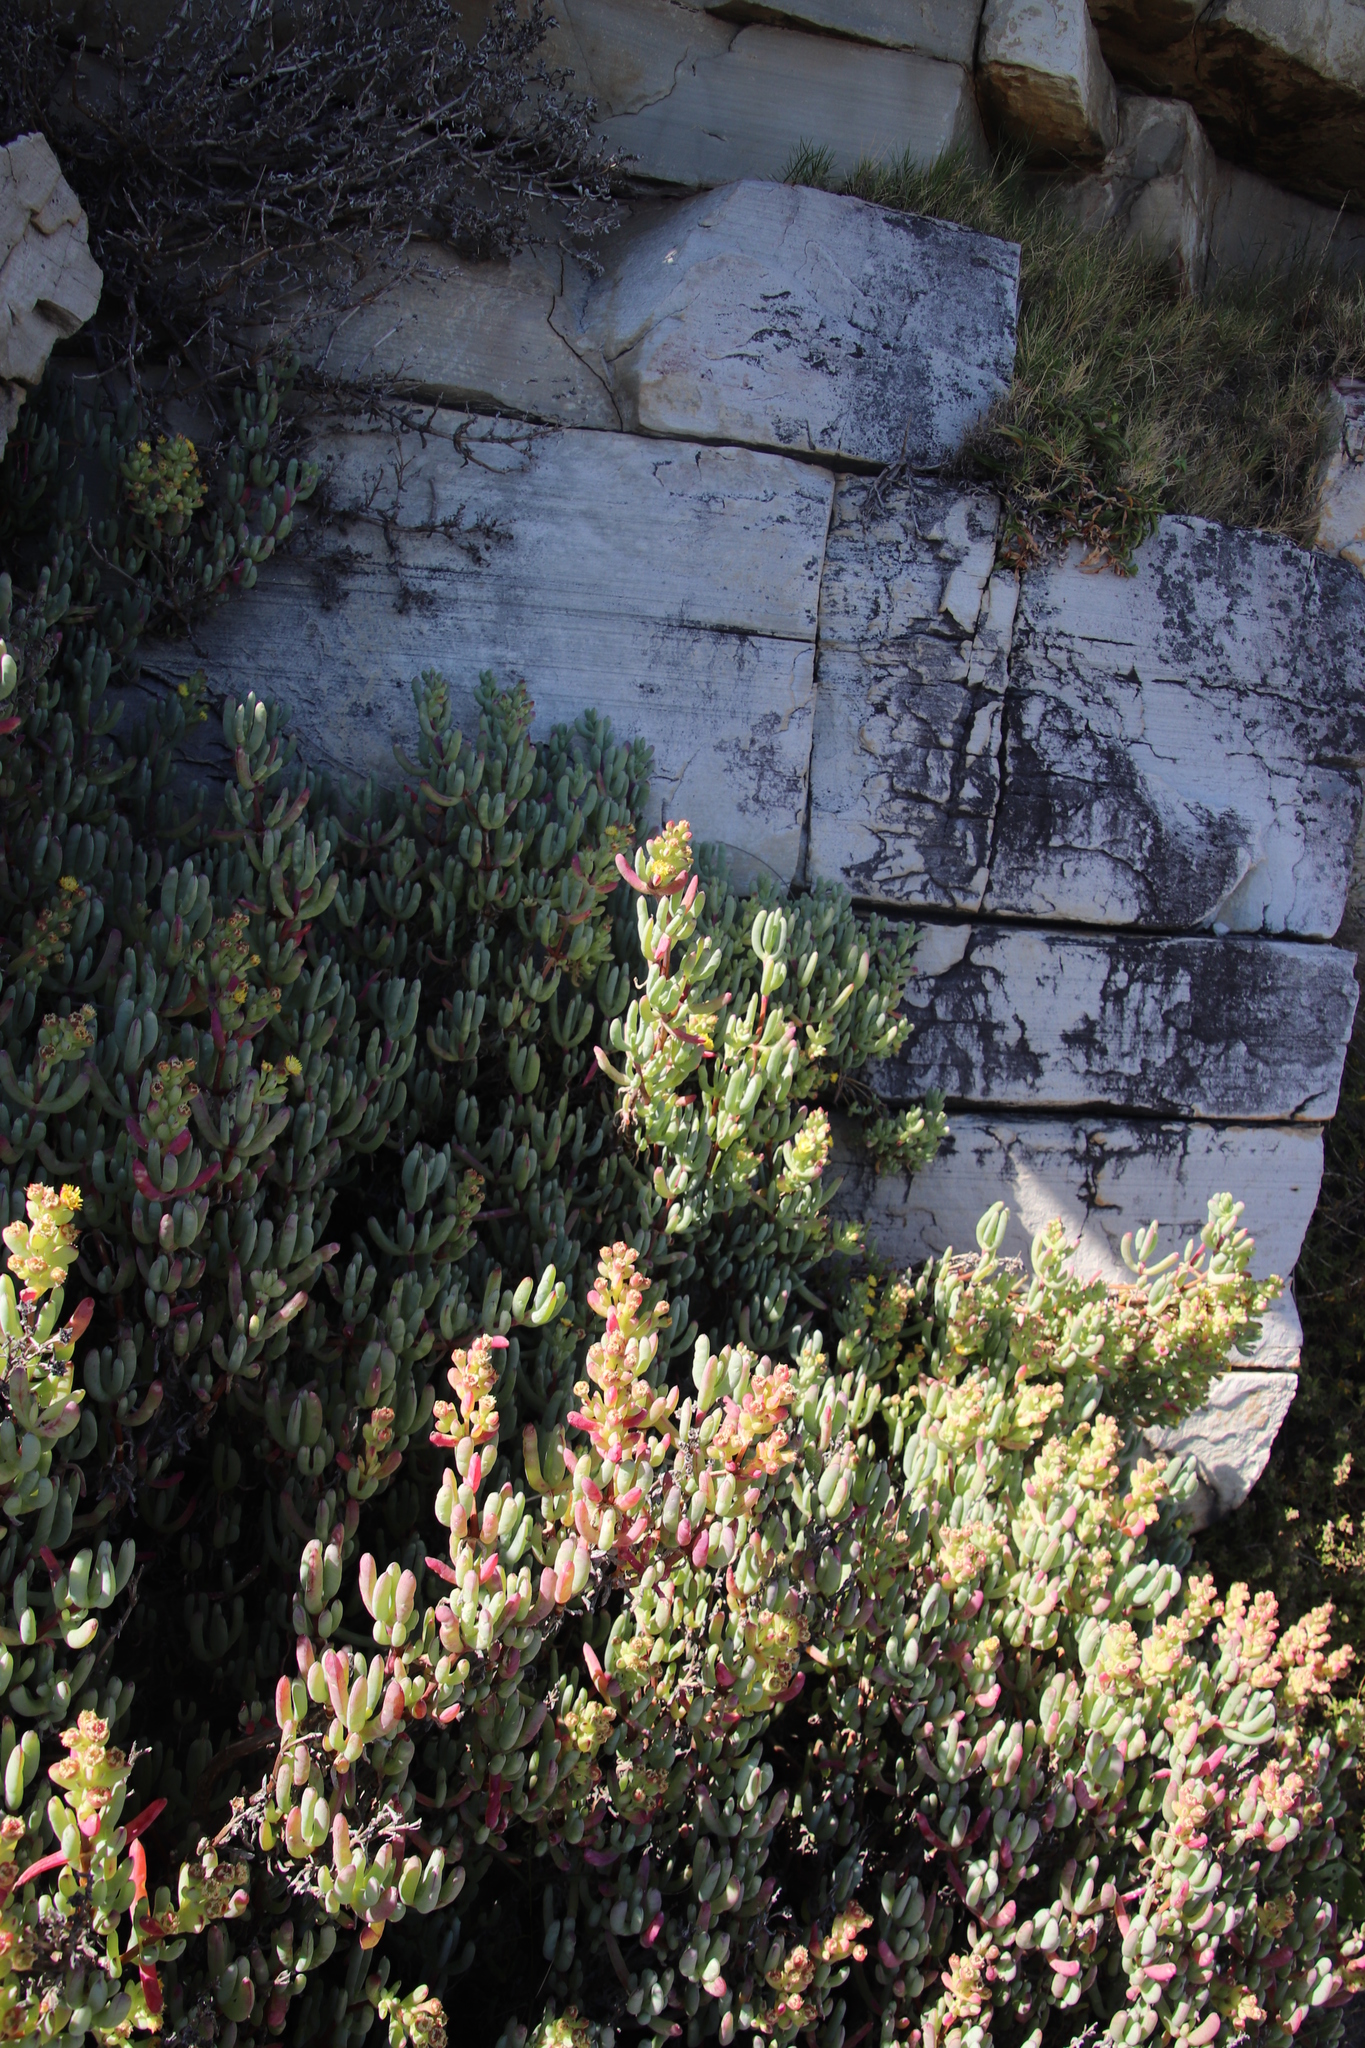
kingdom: Plantae
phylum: Tracheophyta
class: Magnoliopsida
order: Caryophyllales
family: Aizoaceae
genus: Scopelogena
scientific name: Scopelogena verruculata
